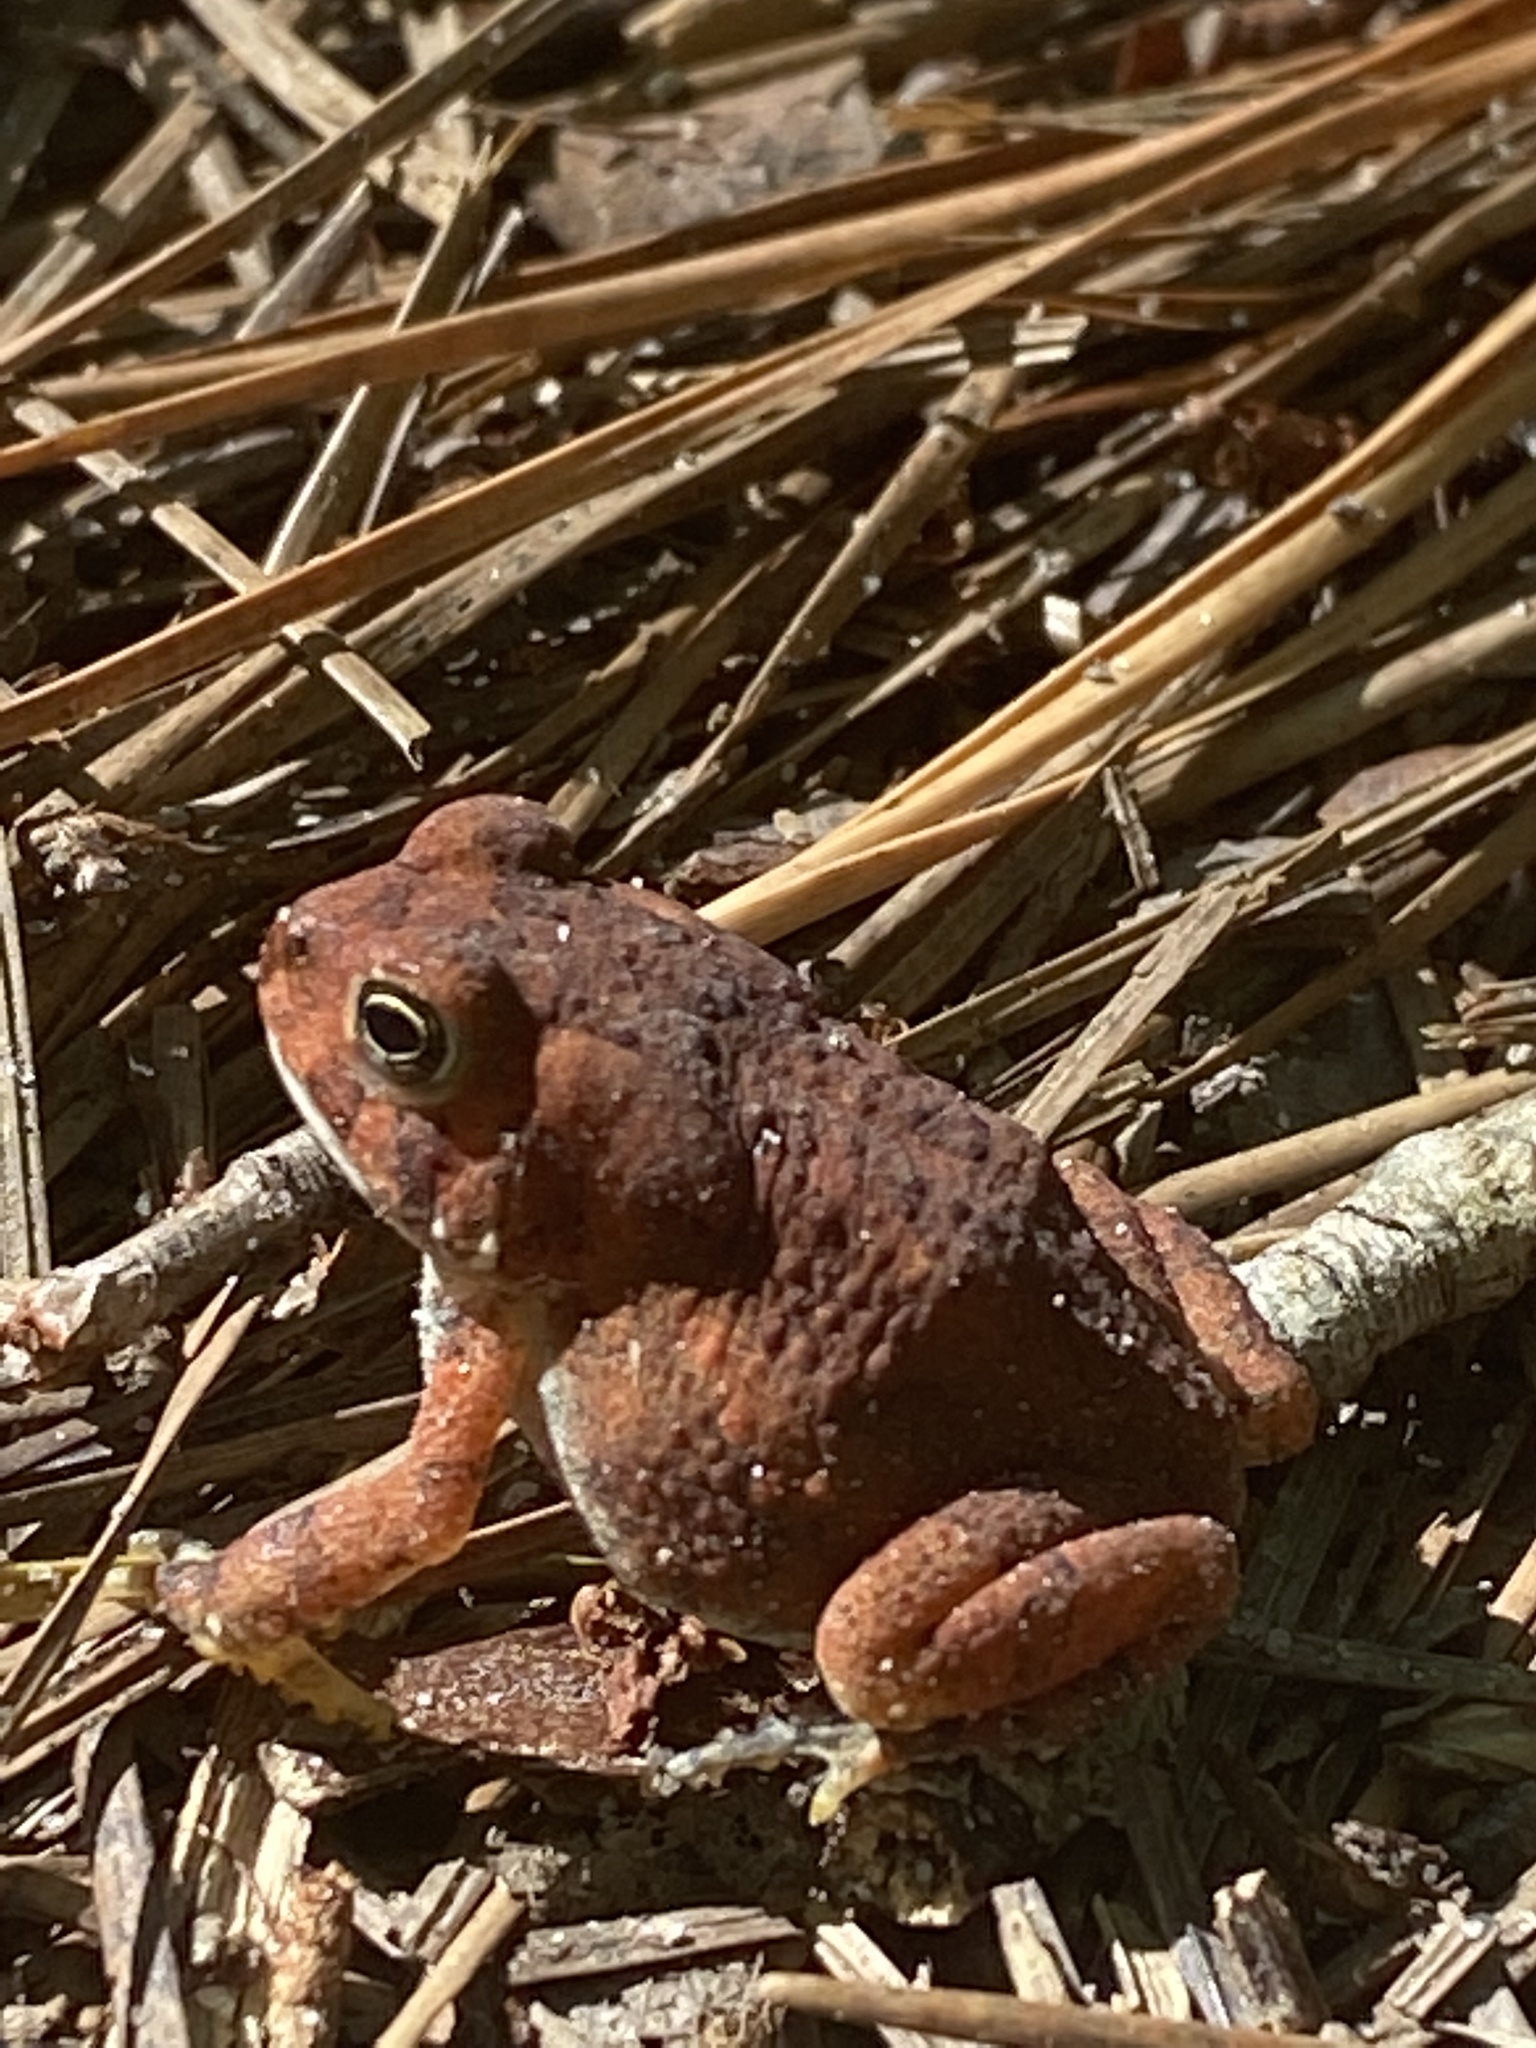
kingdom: Animalia
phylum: Chordata
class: Amphibia
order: Anura
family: Bufonidae
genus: Anaxyrus
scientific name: Anaxyrus americanus
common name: American toad
